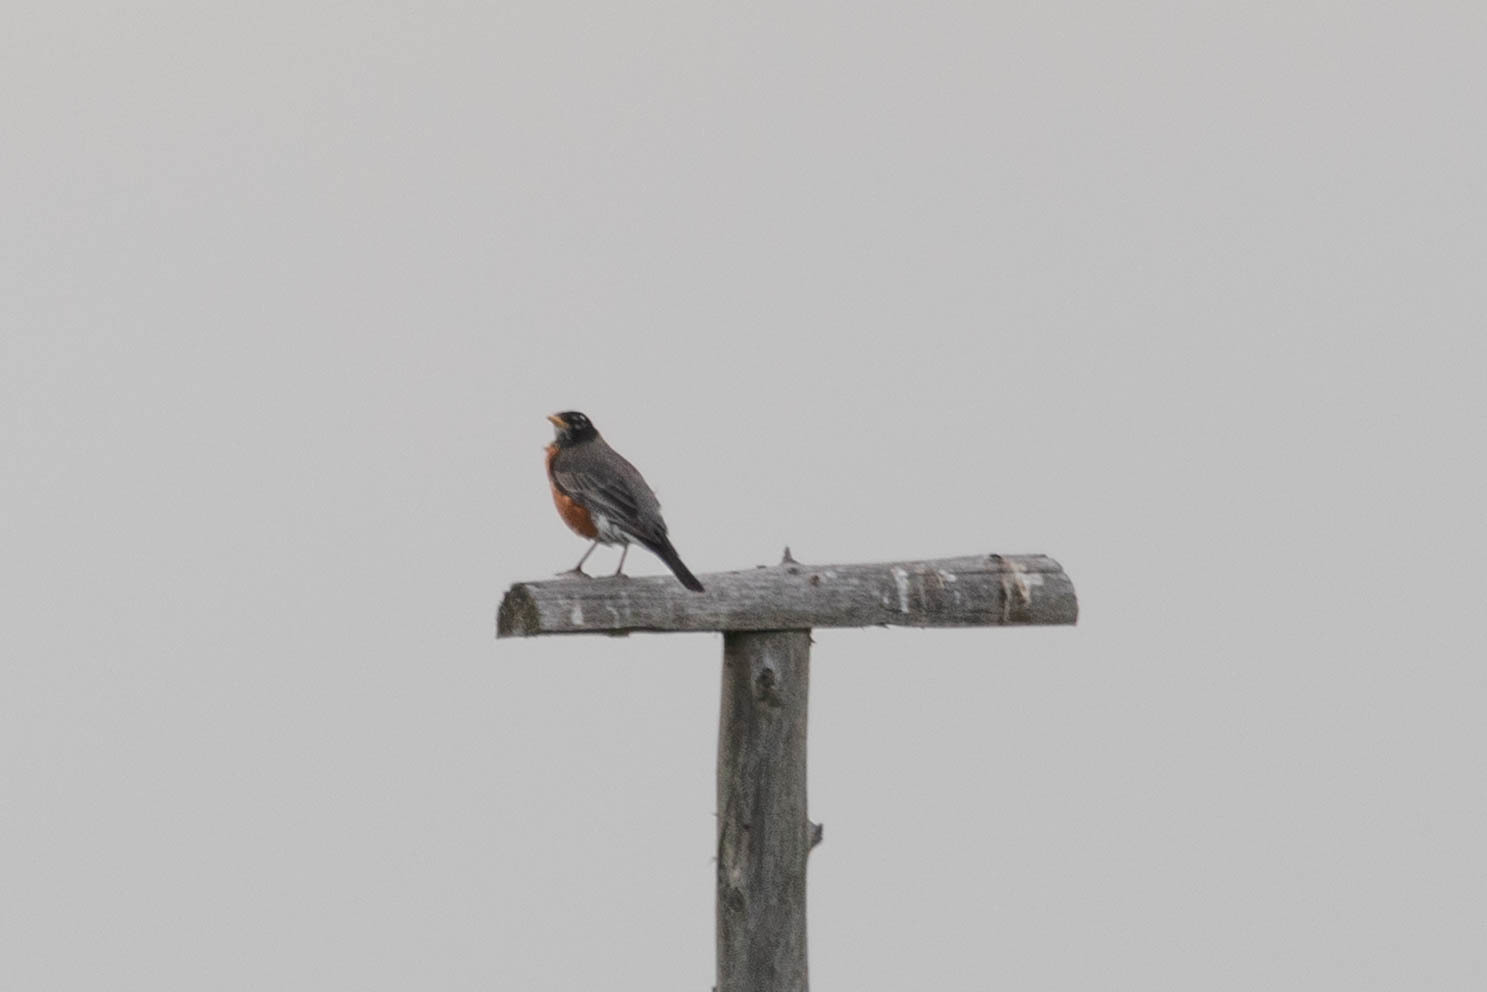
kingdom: Animalia
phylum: Chordata
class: Aves
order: Passeriformes
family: Turdidae
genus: Turdus
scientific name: Turdus migratorius
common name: American robin
